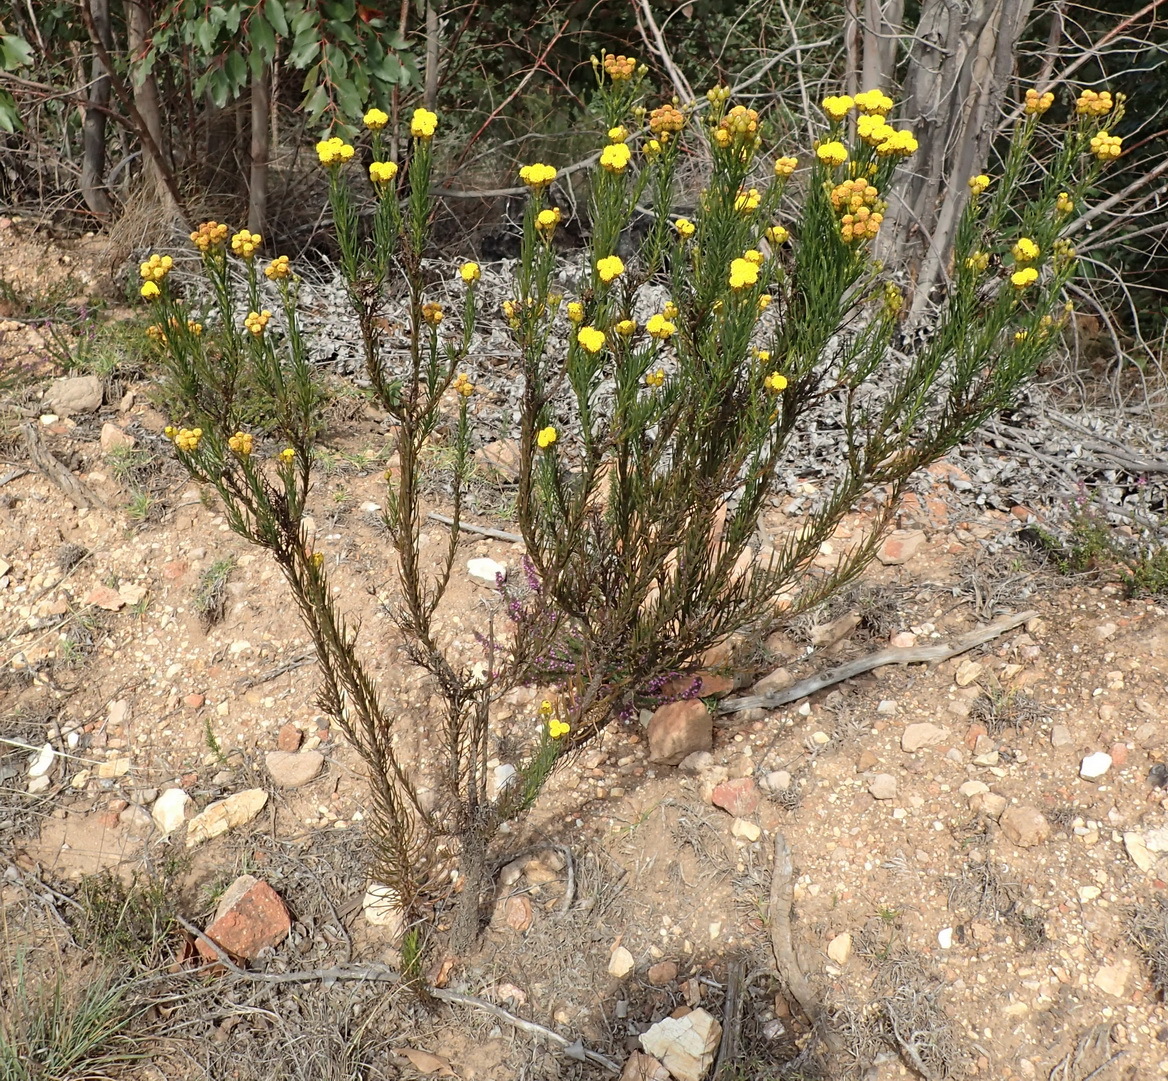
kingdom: Plantae
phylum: Tracheophyta
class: Magnoliopsida
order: Asterales
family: Asteraceae
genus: Athanasia
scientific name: Athanasia linifolia
